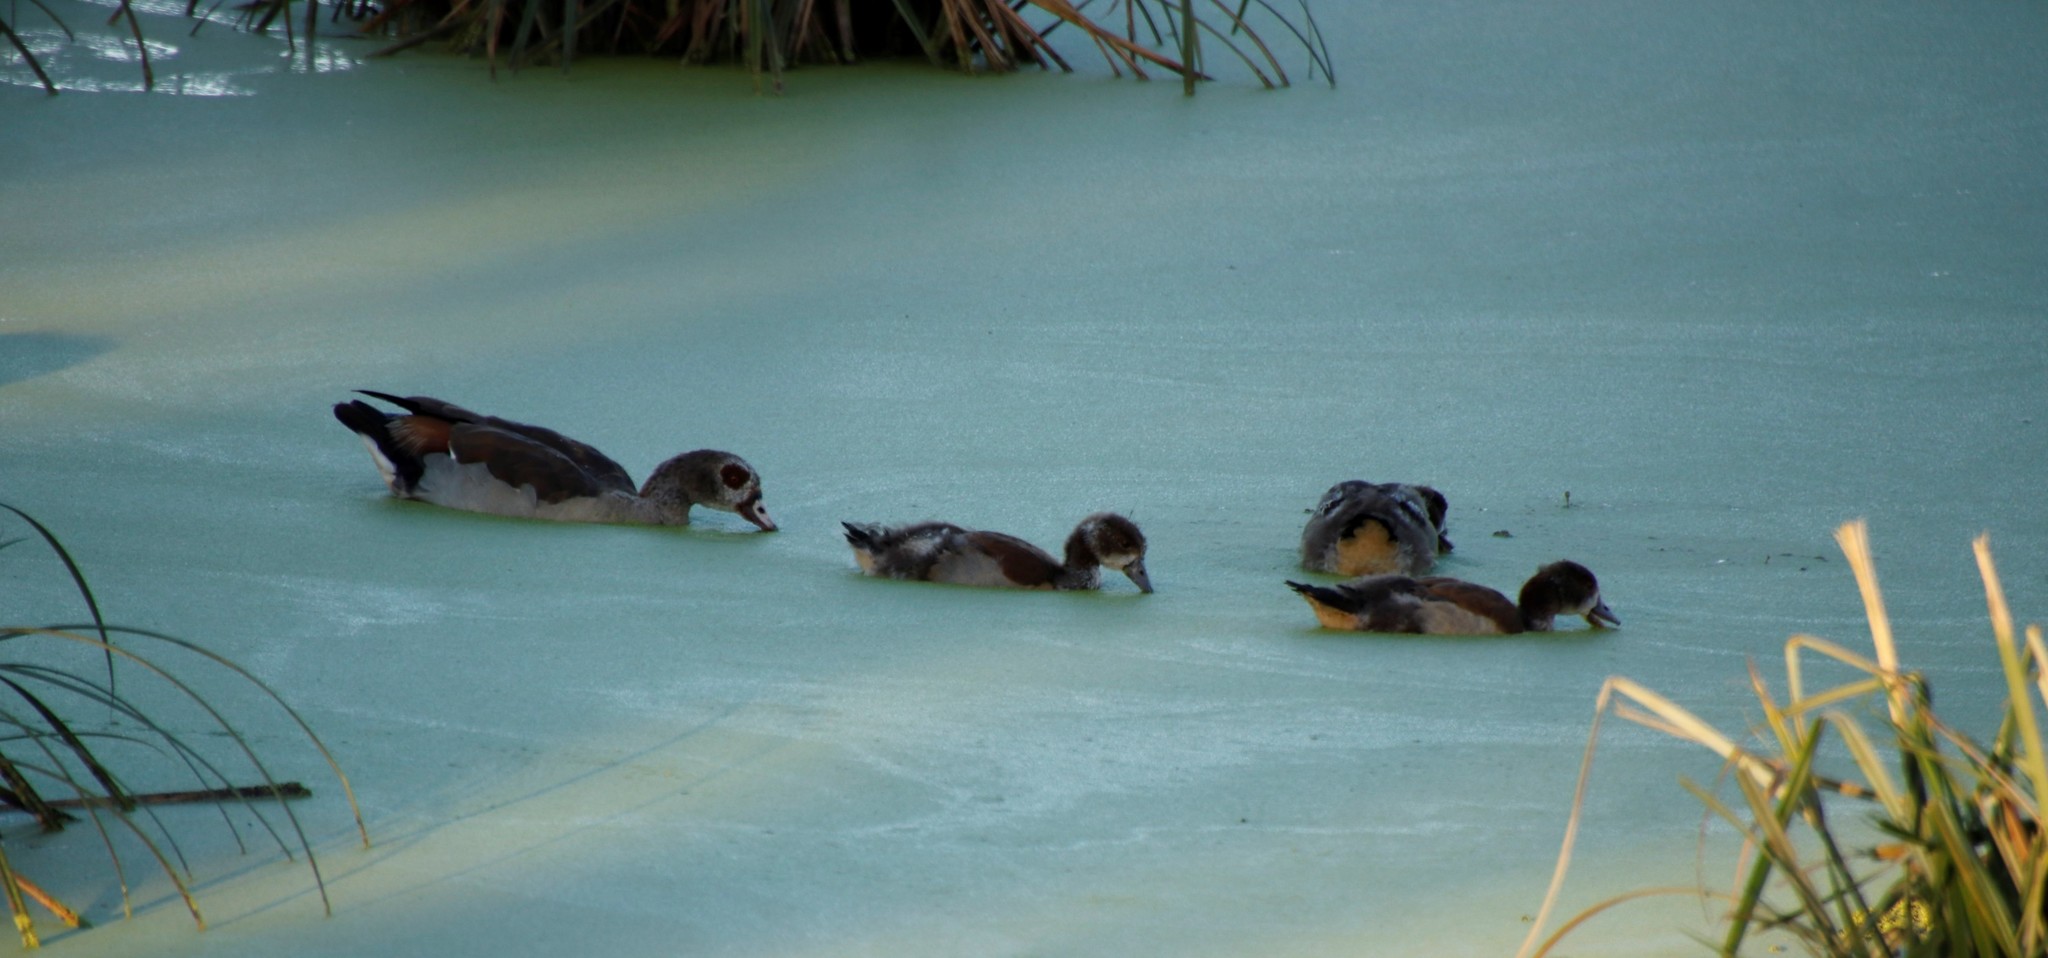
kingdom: Animalia
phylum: Chordata
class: Aves
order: Anseriformes
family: Anatidae
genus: Alopochen
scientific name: Alopochen aegyptiaca
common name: Egyptian goose
